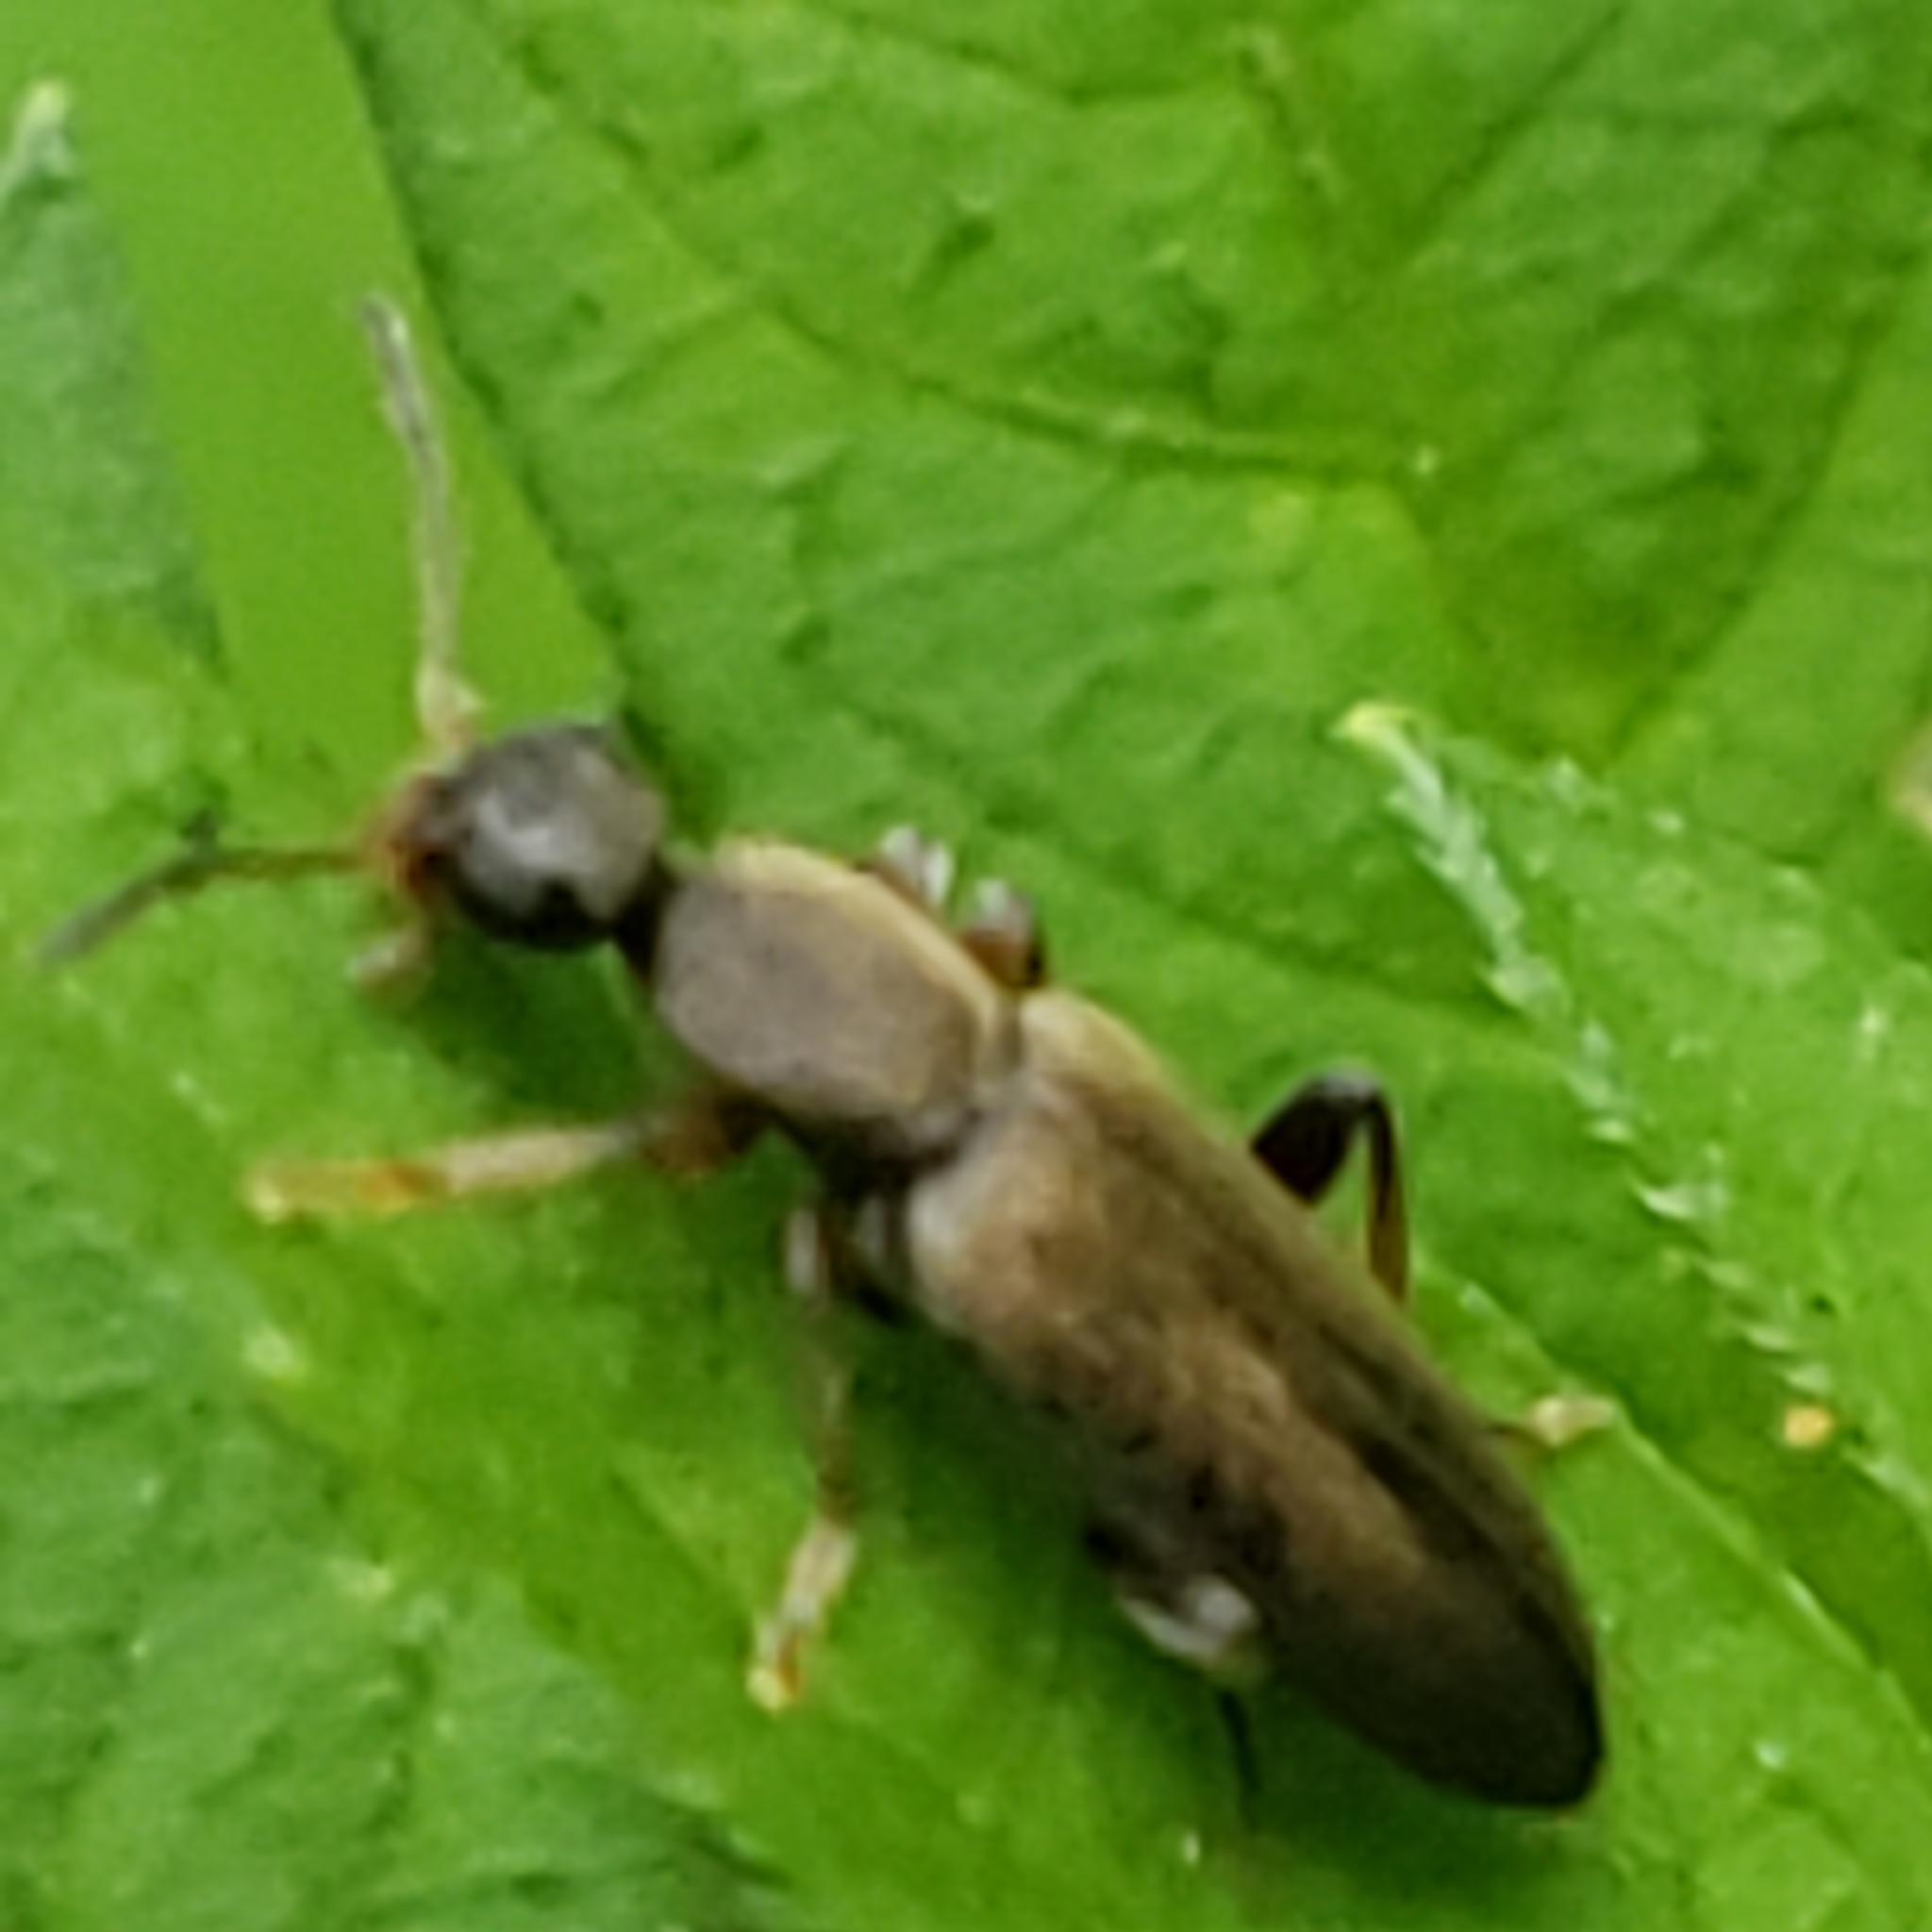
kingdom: Animalia
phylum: Arthropoda
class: Insecta
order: Coleoptera
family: Anthicidae
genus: Macratria
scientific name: Macratria murina
